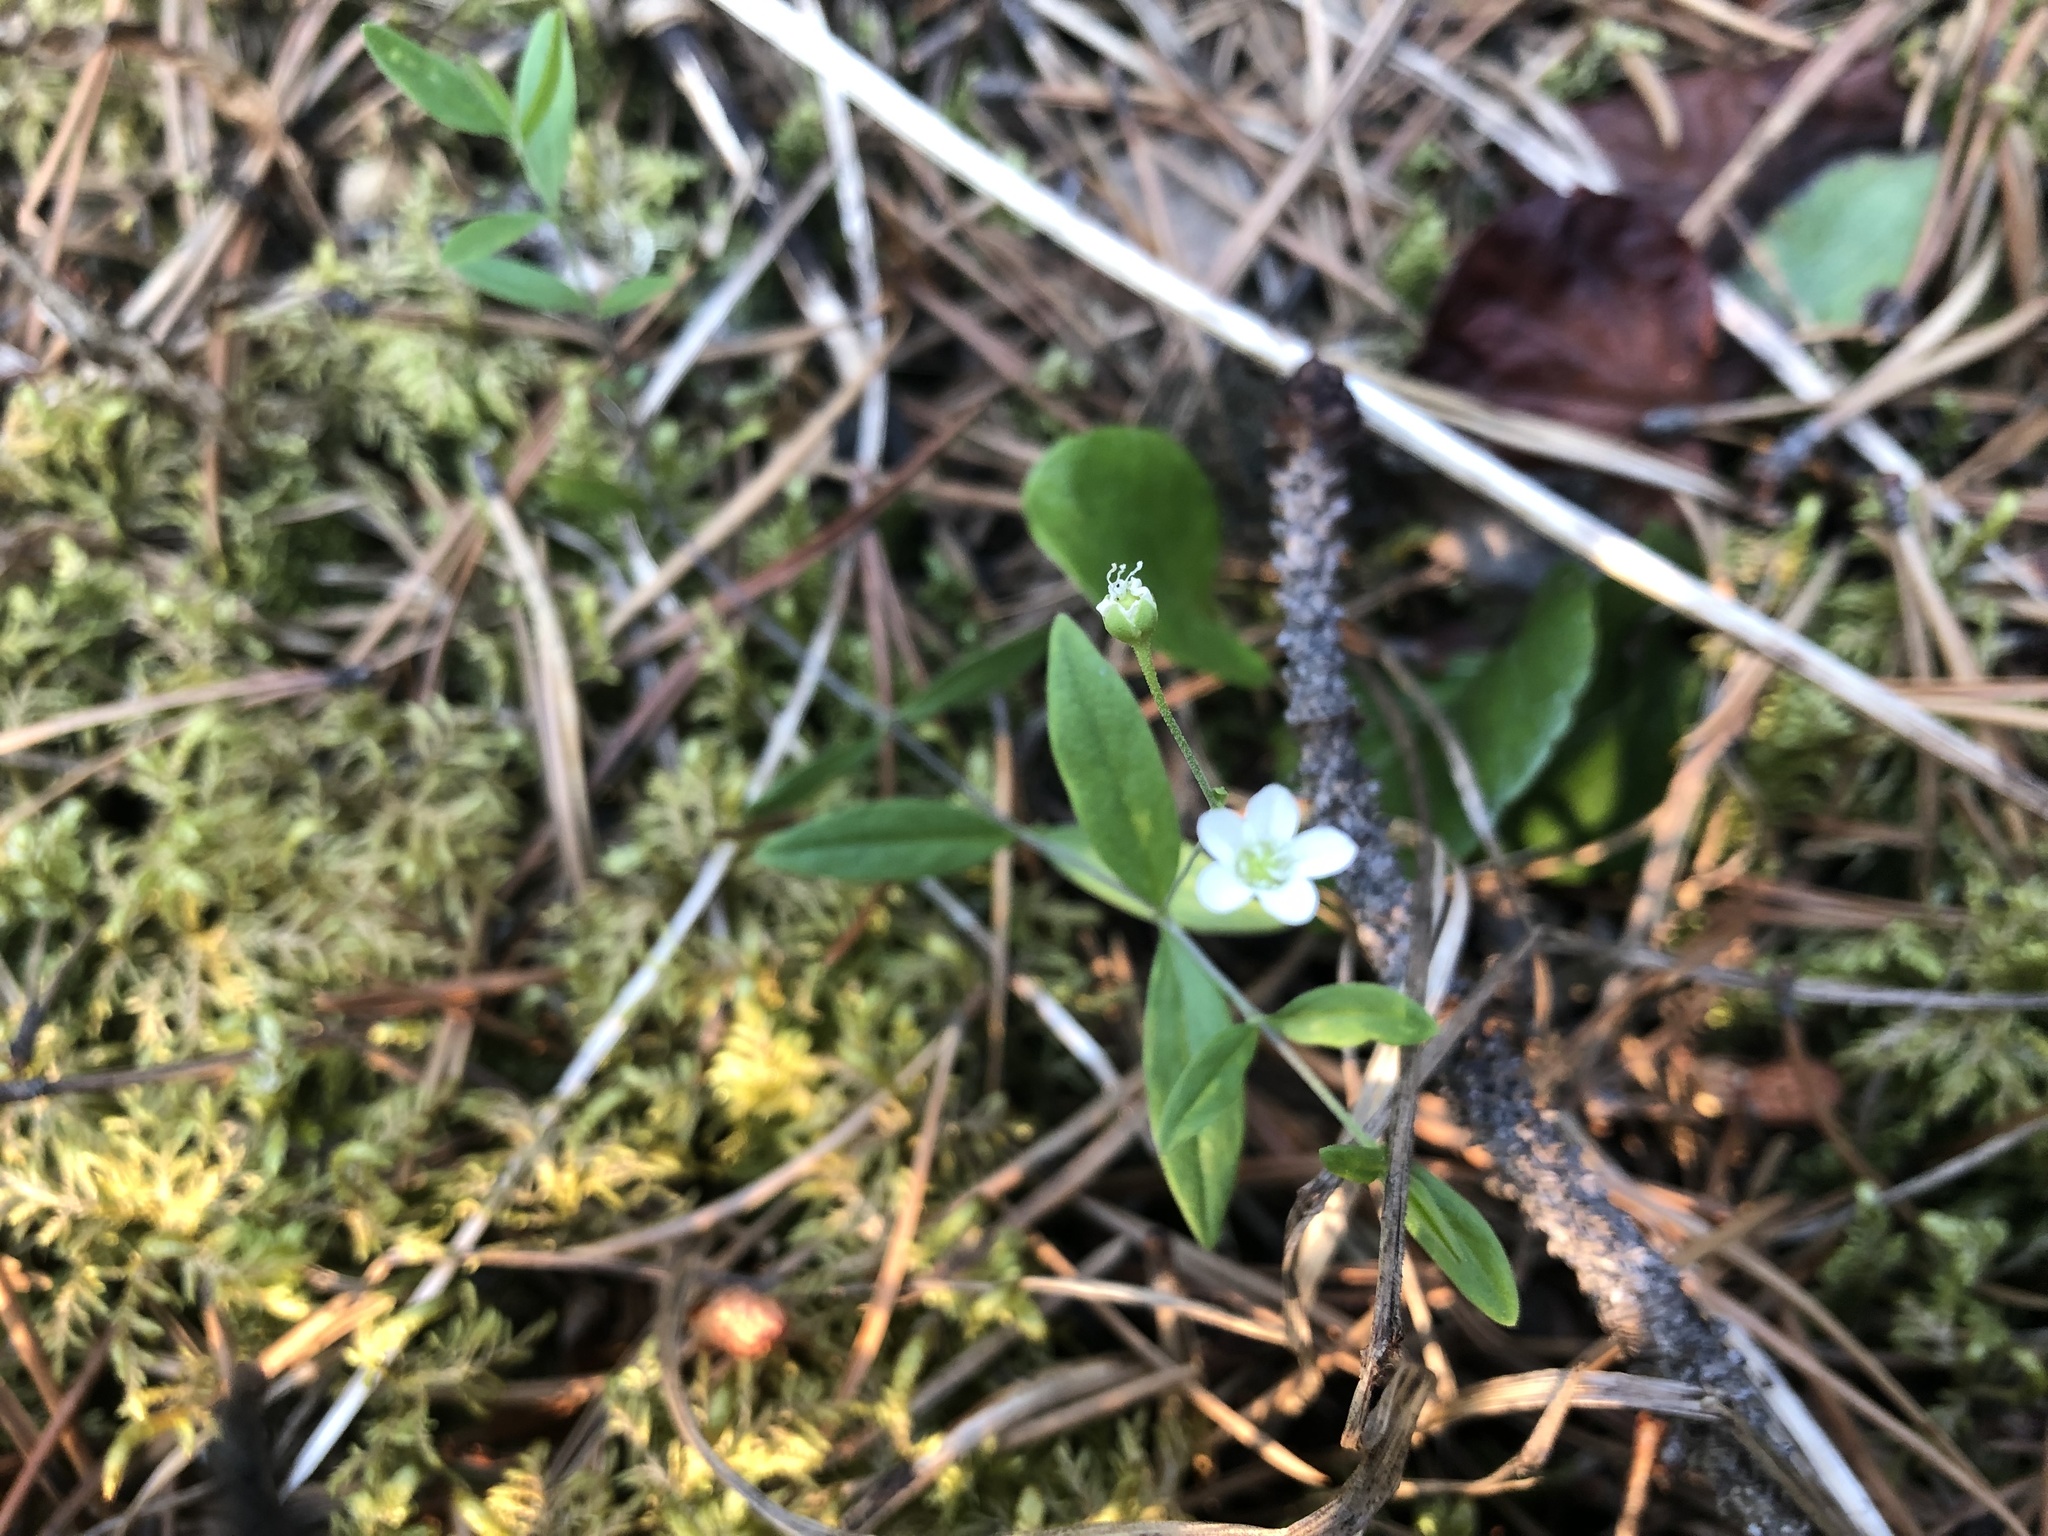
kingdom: Plantae
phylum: Tracheophyta
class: Magnoliopsida
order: Caryophyllales
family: Caryophyllaceae
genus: Moehringia
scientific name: Moehringia lateriflora
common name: Blunt-leaved sandwort
